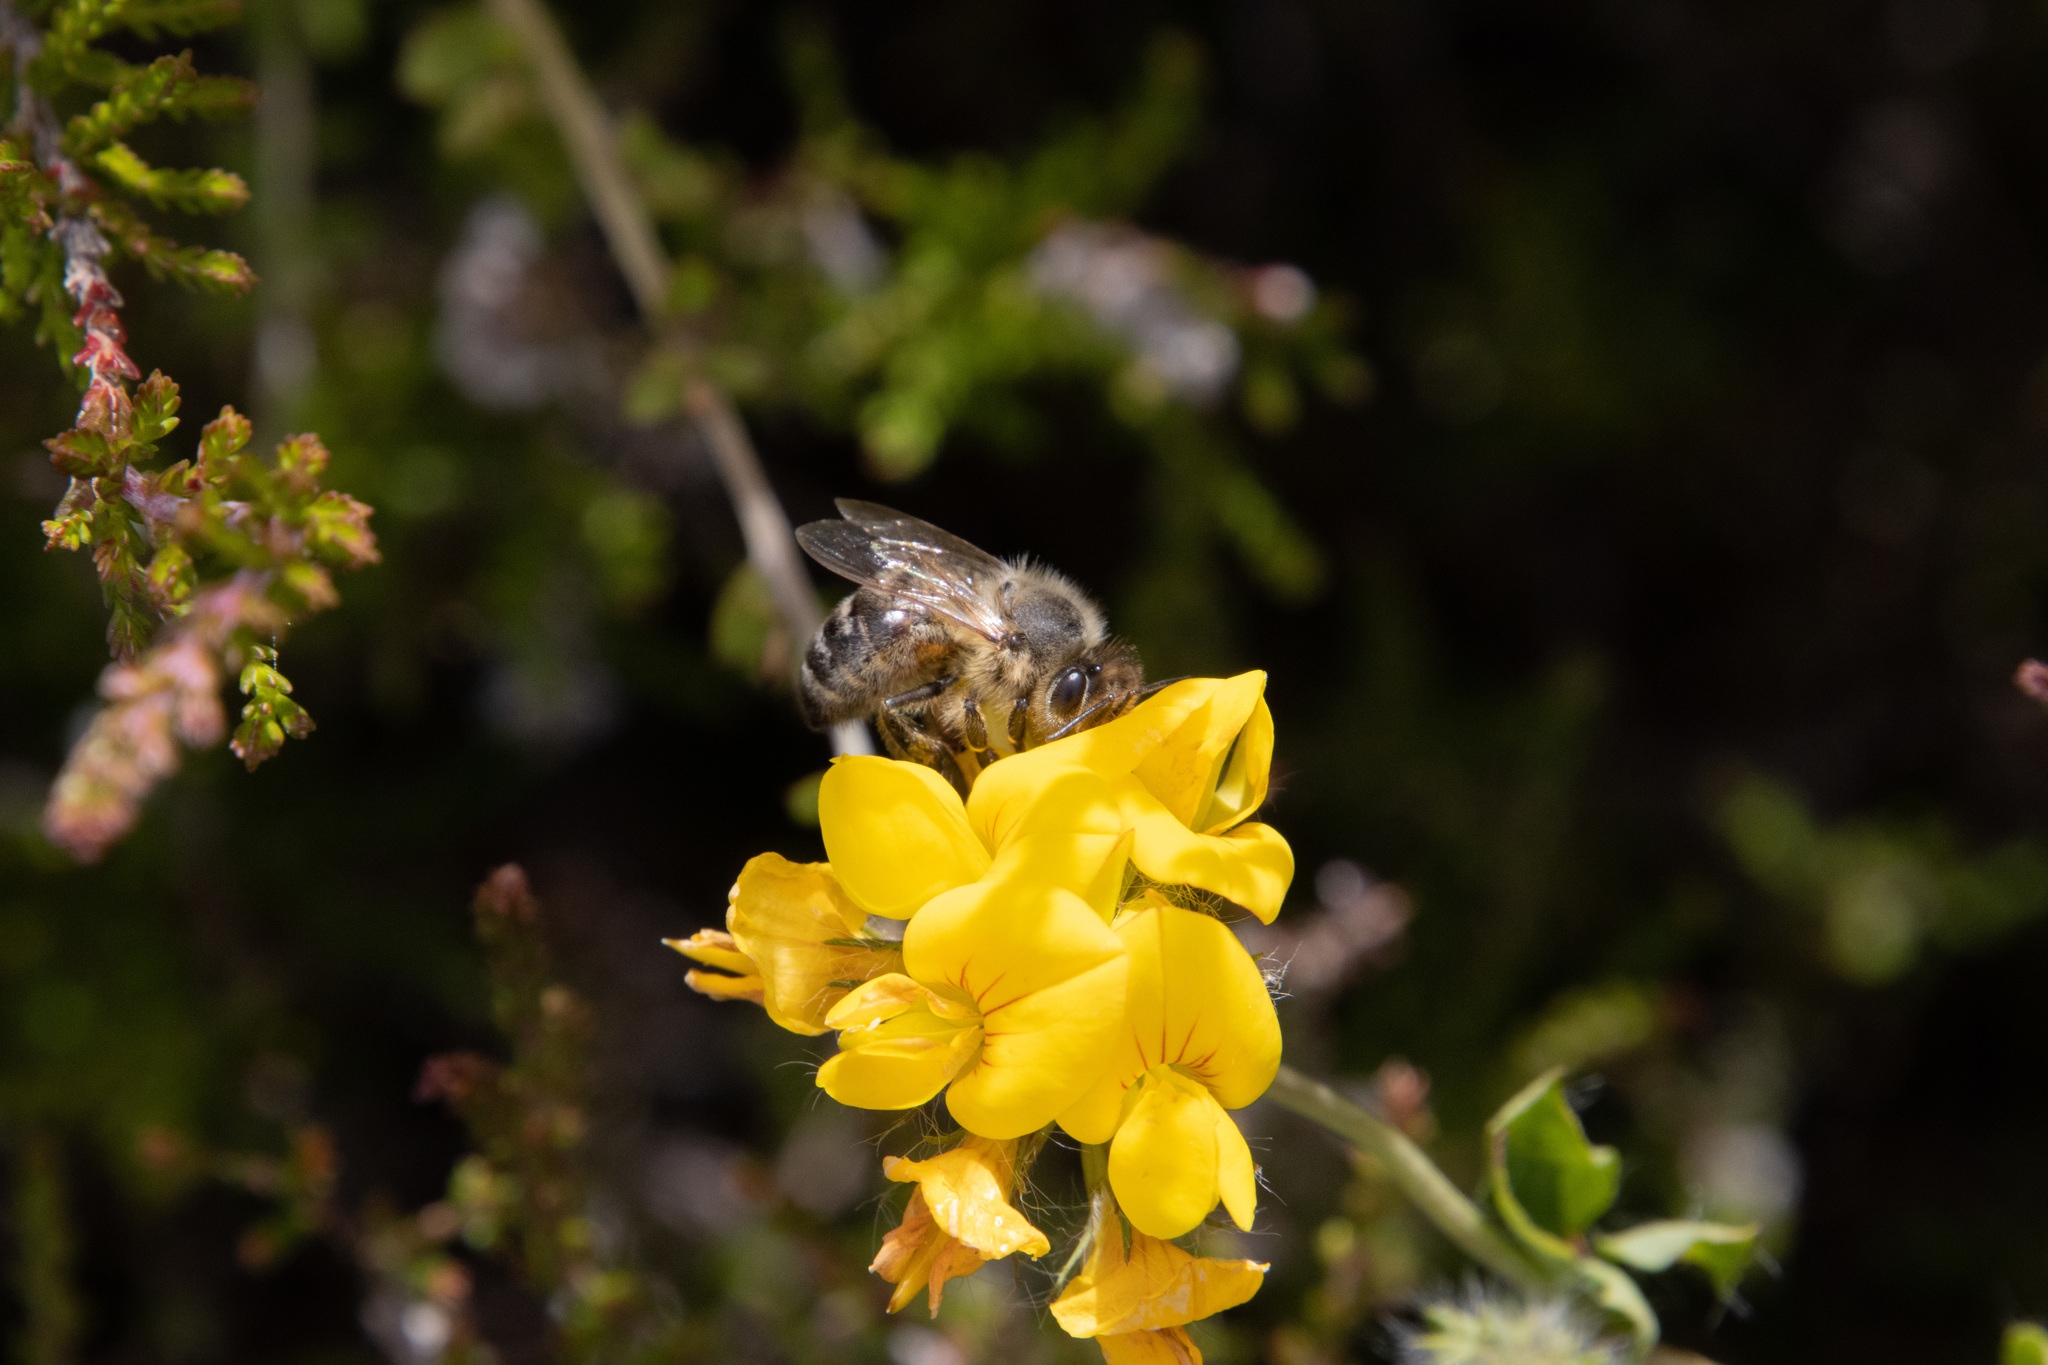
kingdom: Animalia
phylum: Arthropoda
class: Insecta
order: Hymenoptera
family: Apidae
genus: Apis
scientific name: Apis mellifera
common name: Honey bee
